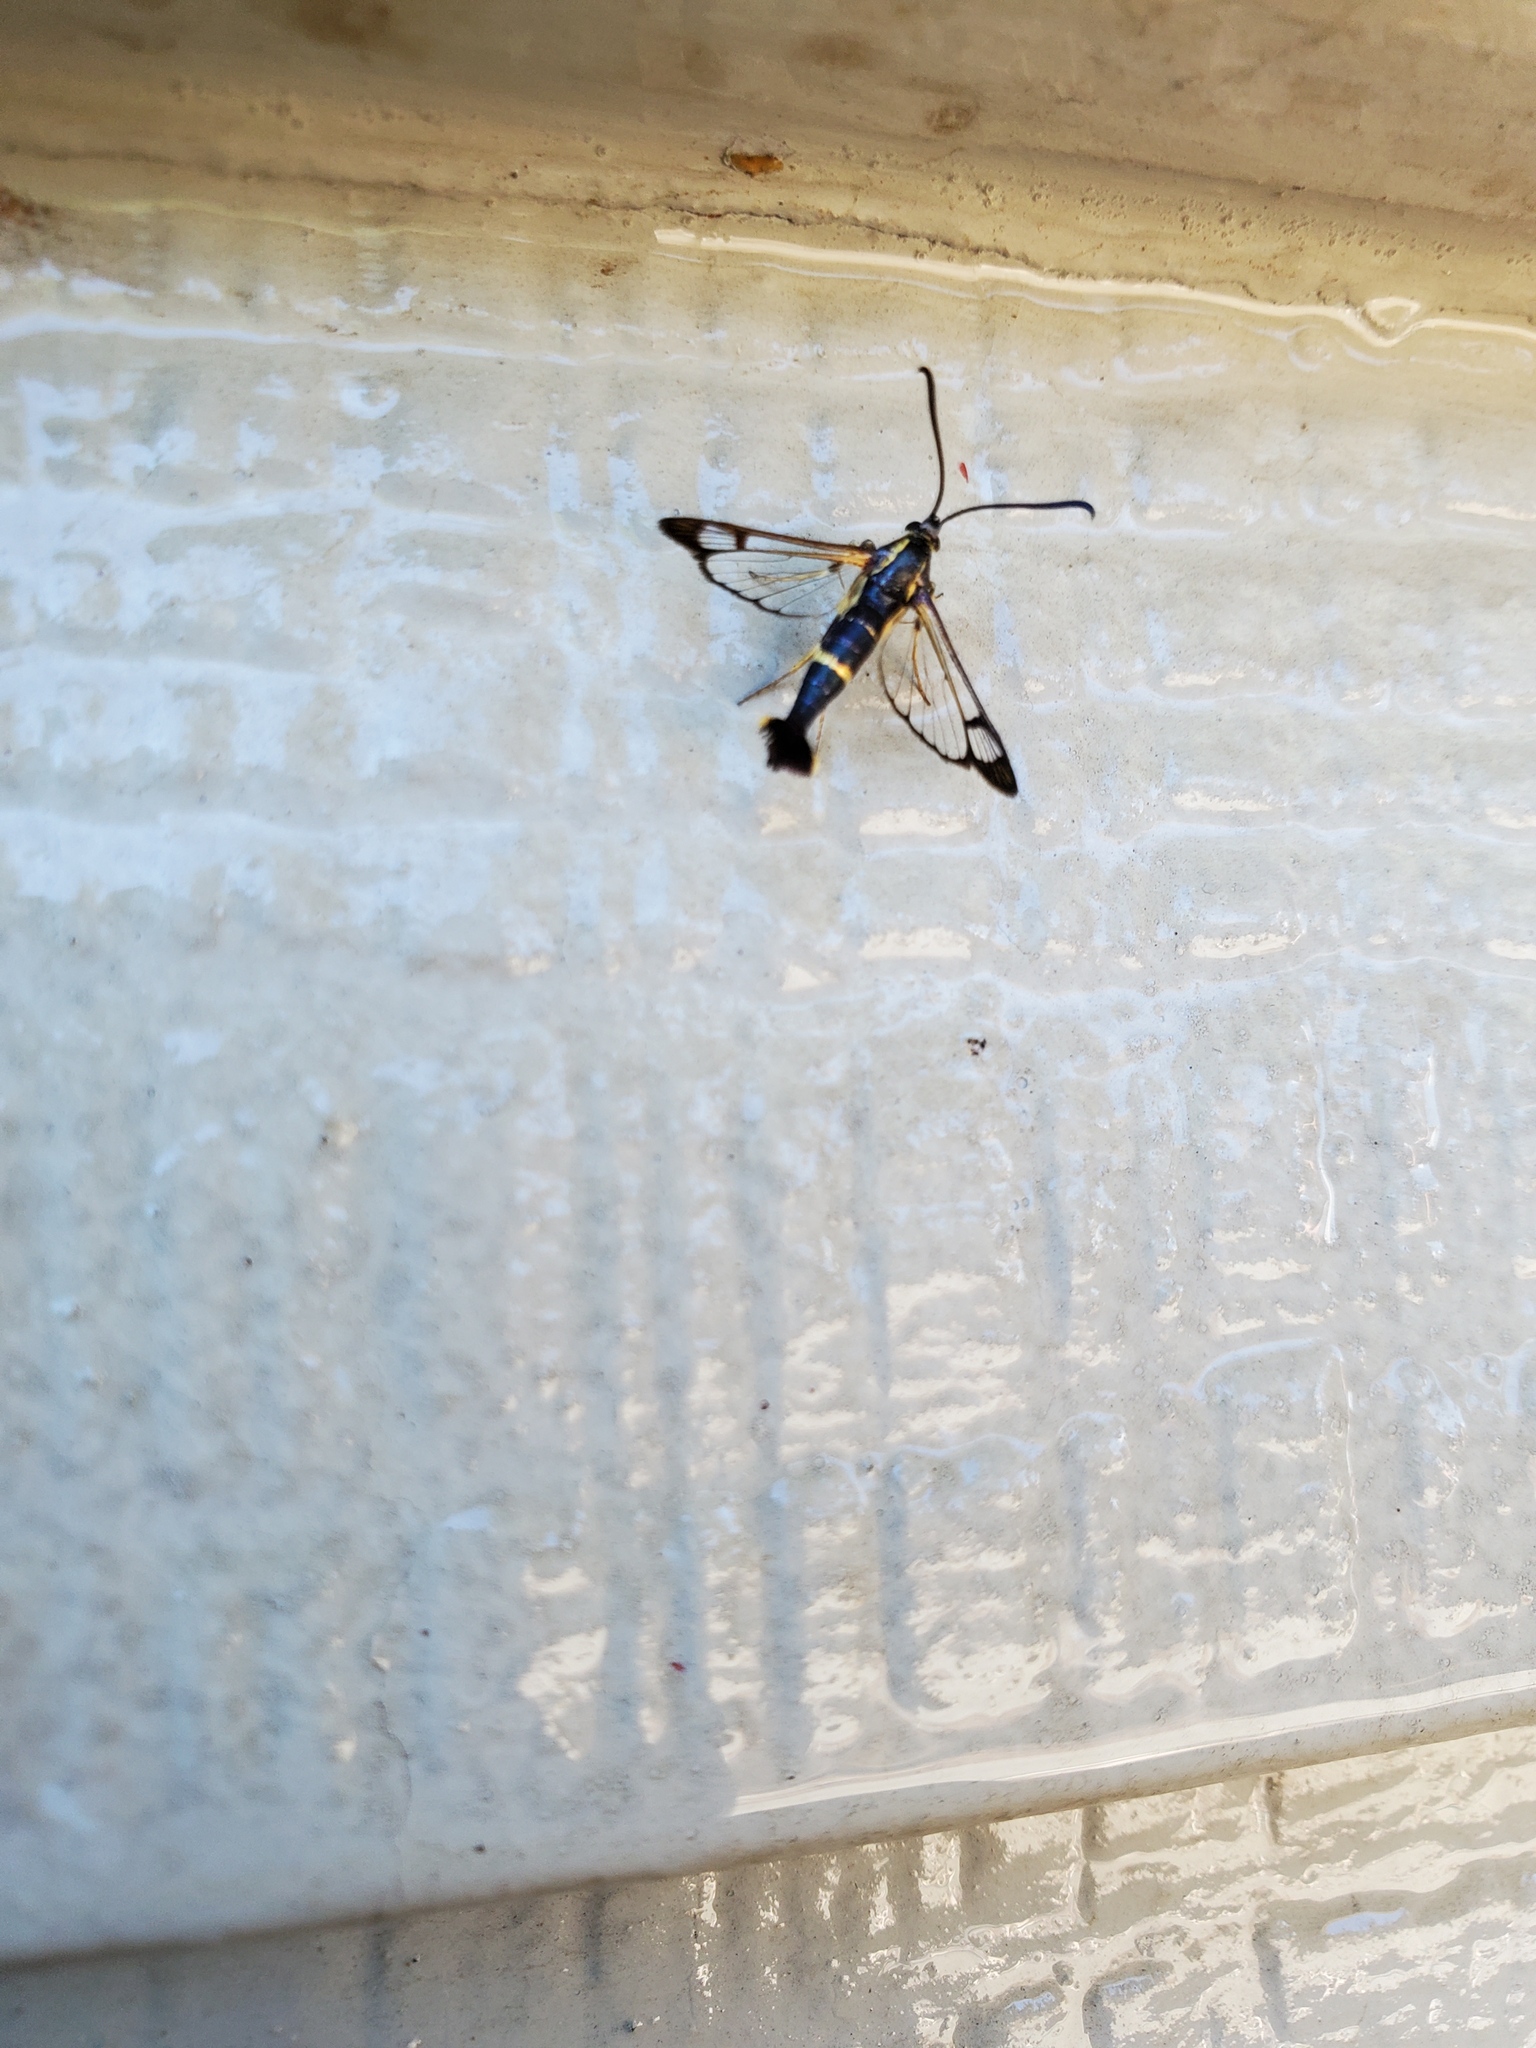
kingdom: Animalia
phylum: Arthropoda
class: Insecta
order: Lepidoptera
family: Sesiidae
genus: Synanthedon
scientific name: Synanthedon scitula
